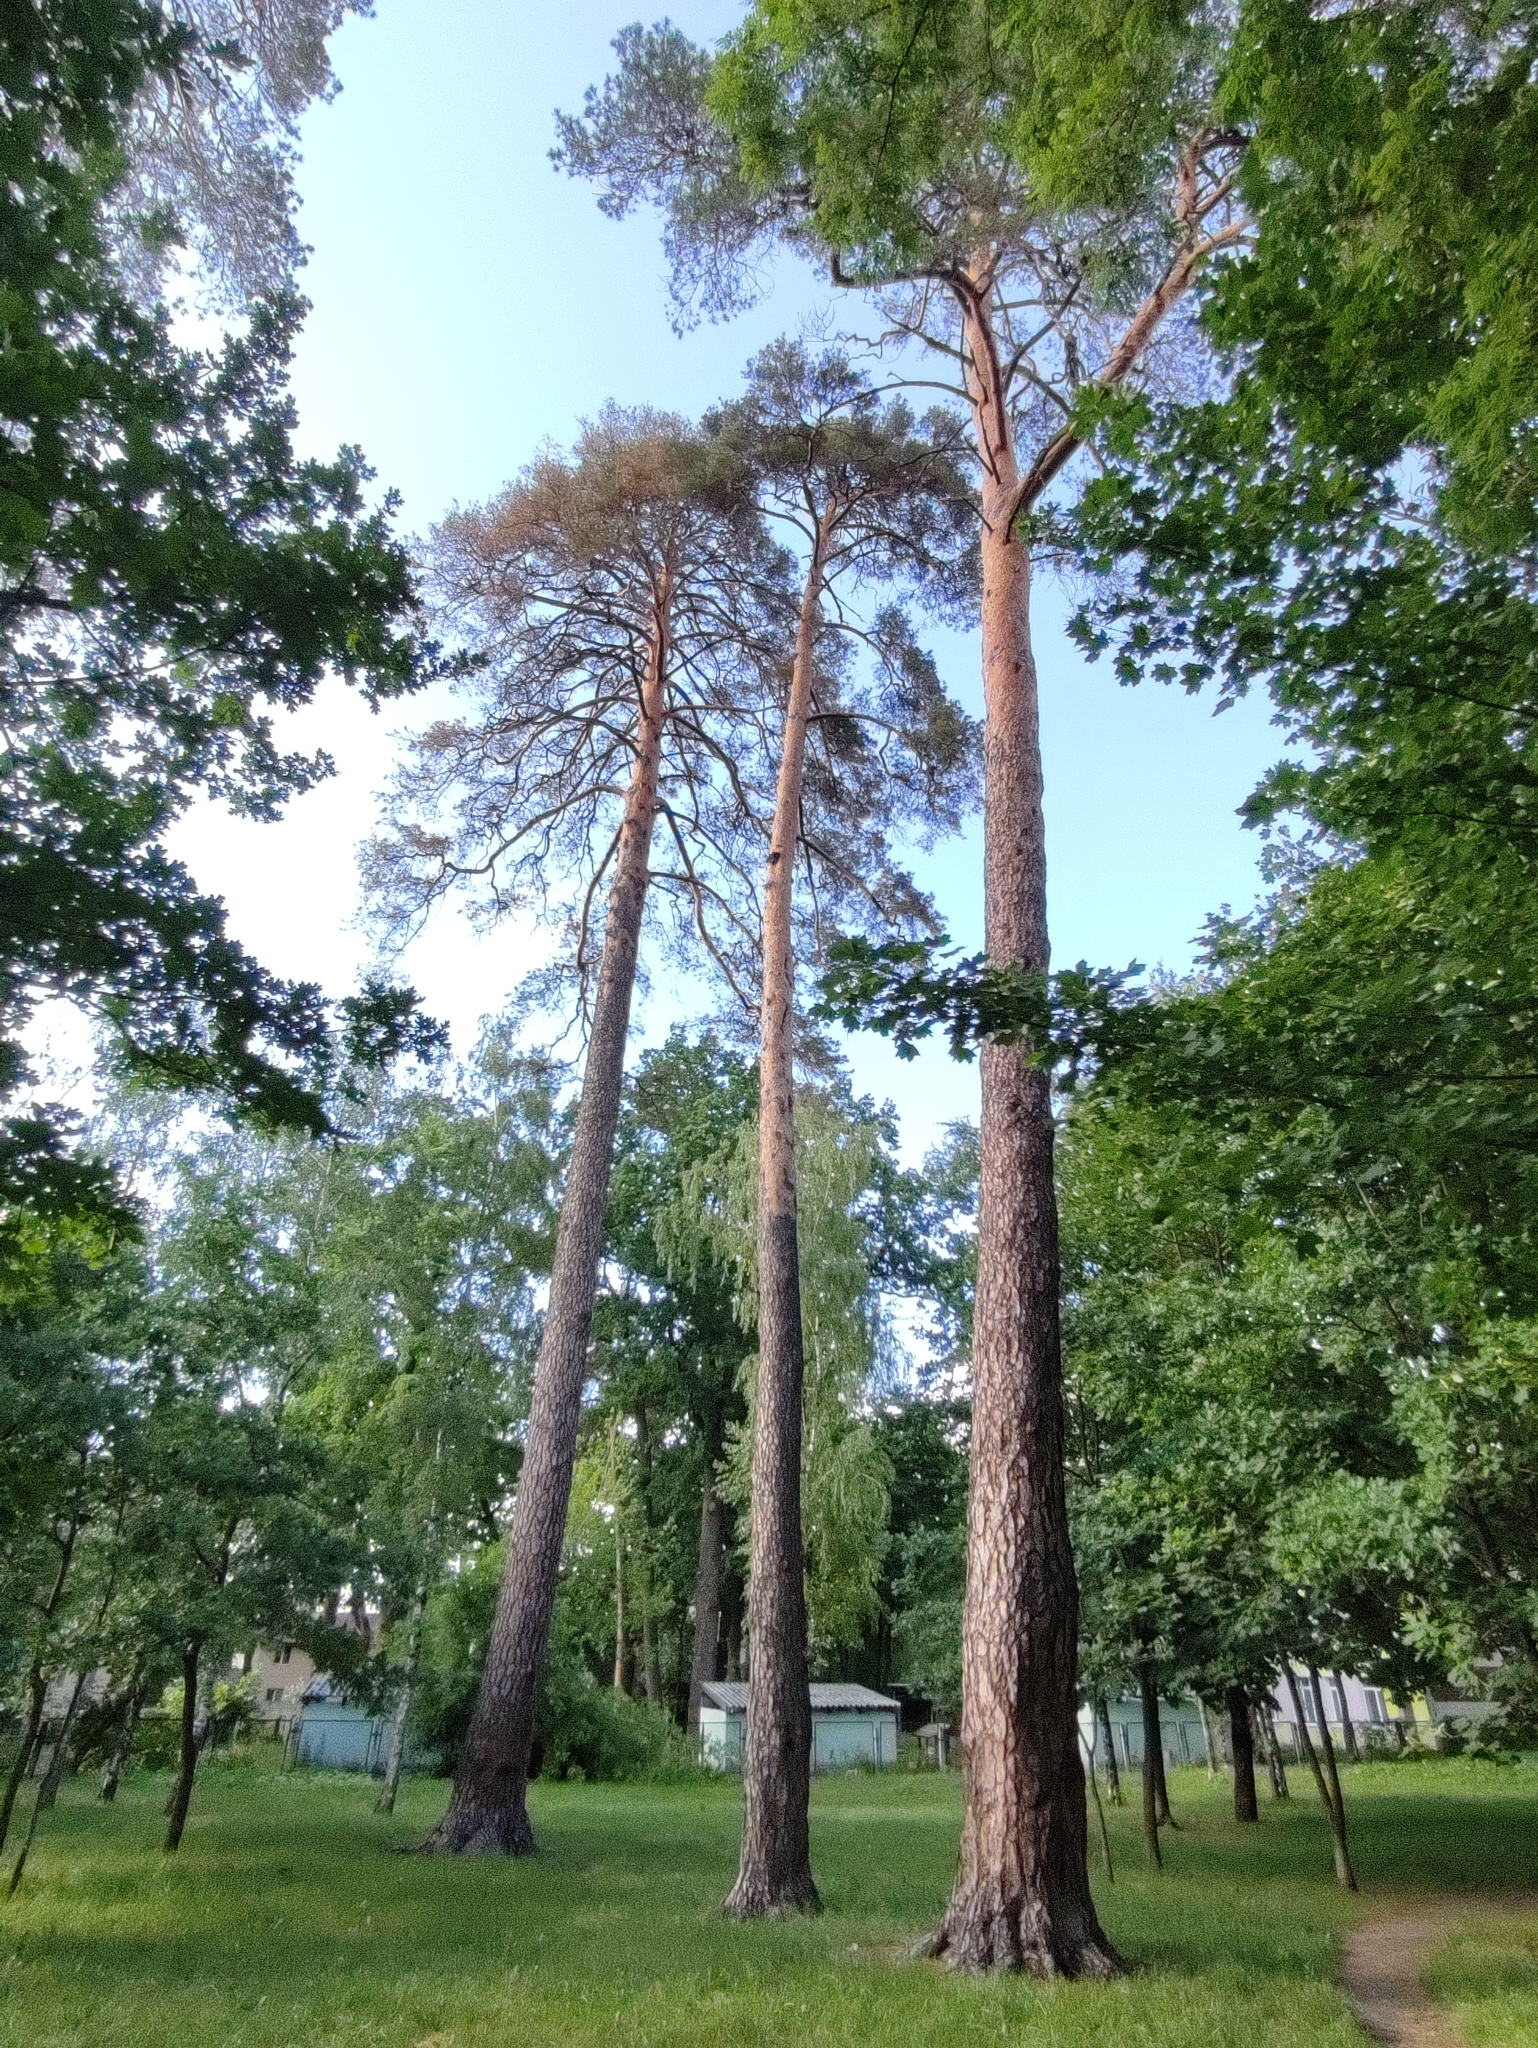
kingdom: Plantae
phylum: Tracheophyta
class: Pinopsida
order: Pinales
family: Pinaceae
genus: Pinus
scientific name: Pinus sylvestris
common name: Scots pine
